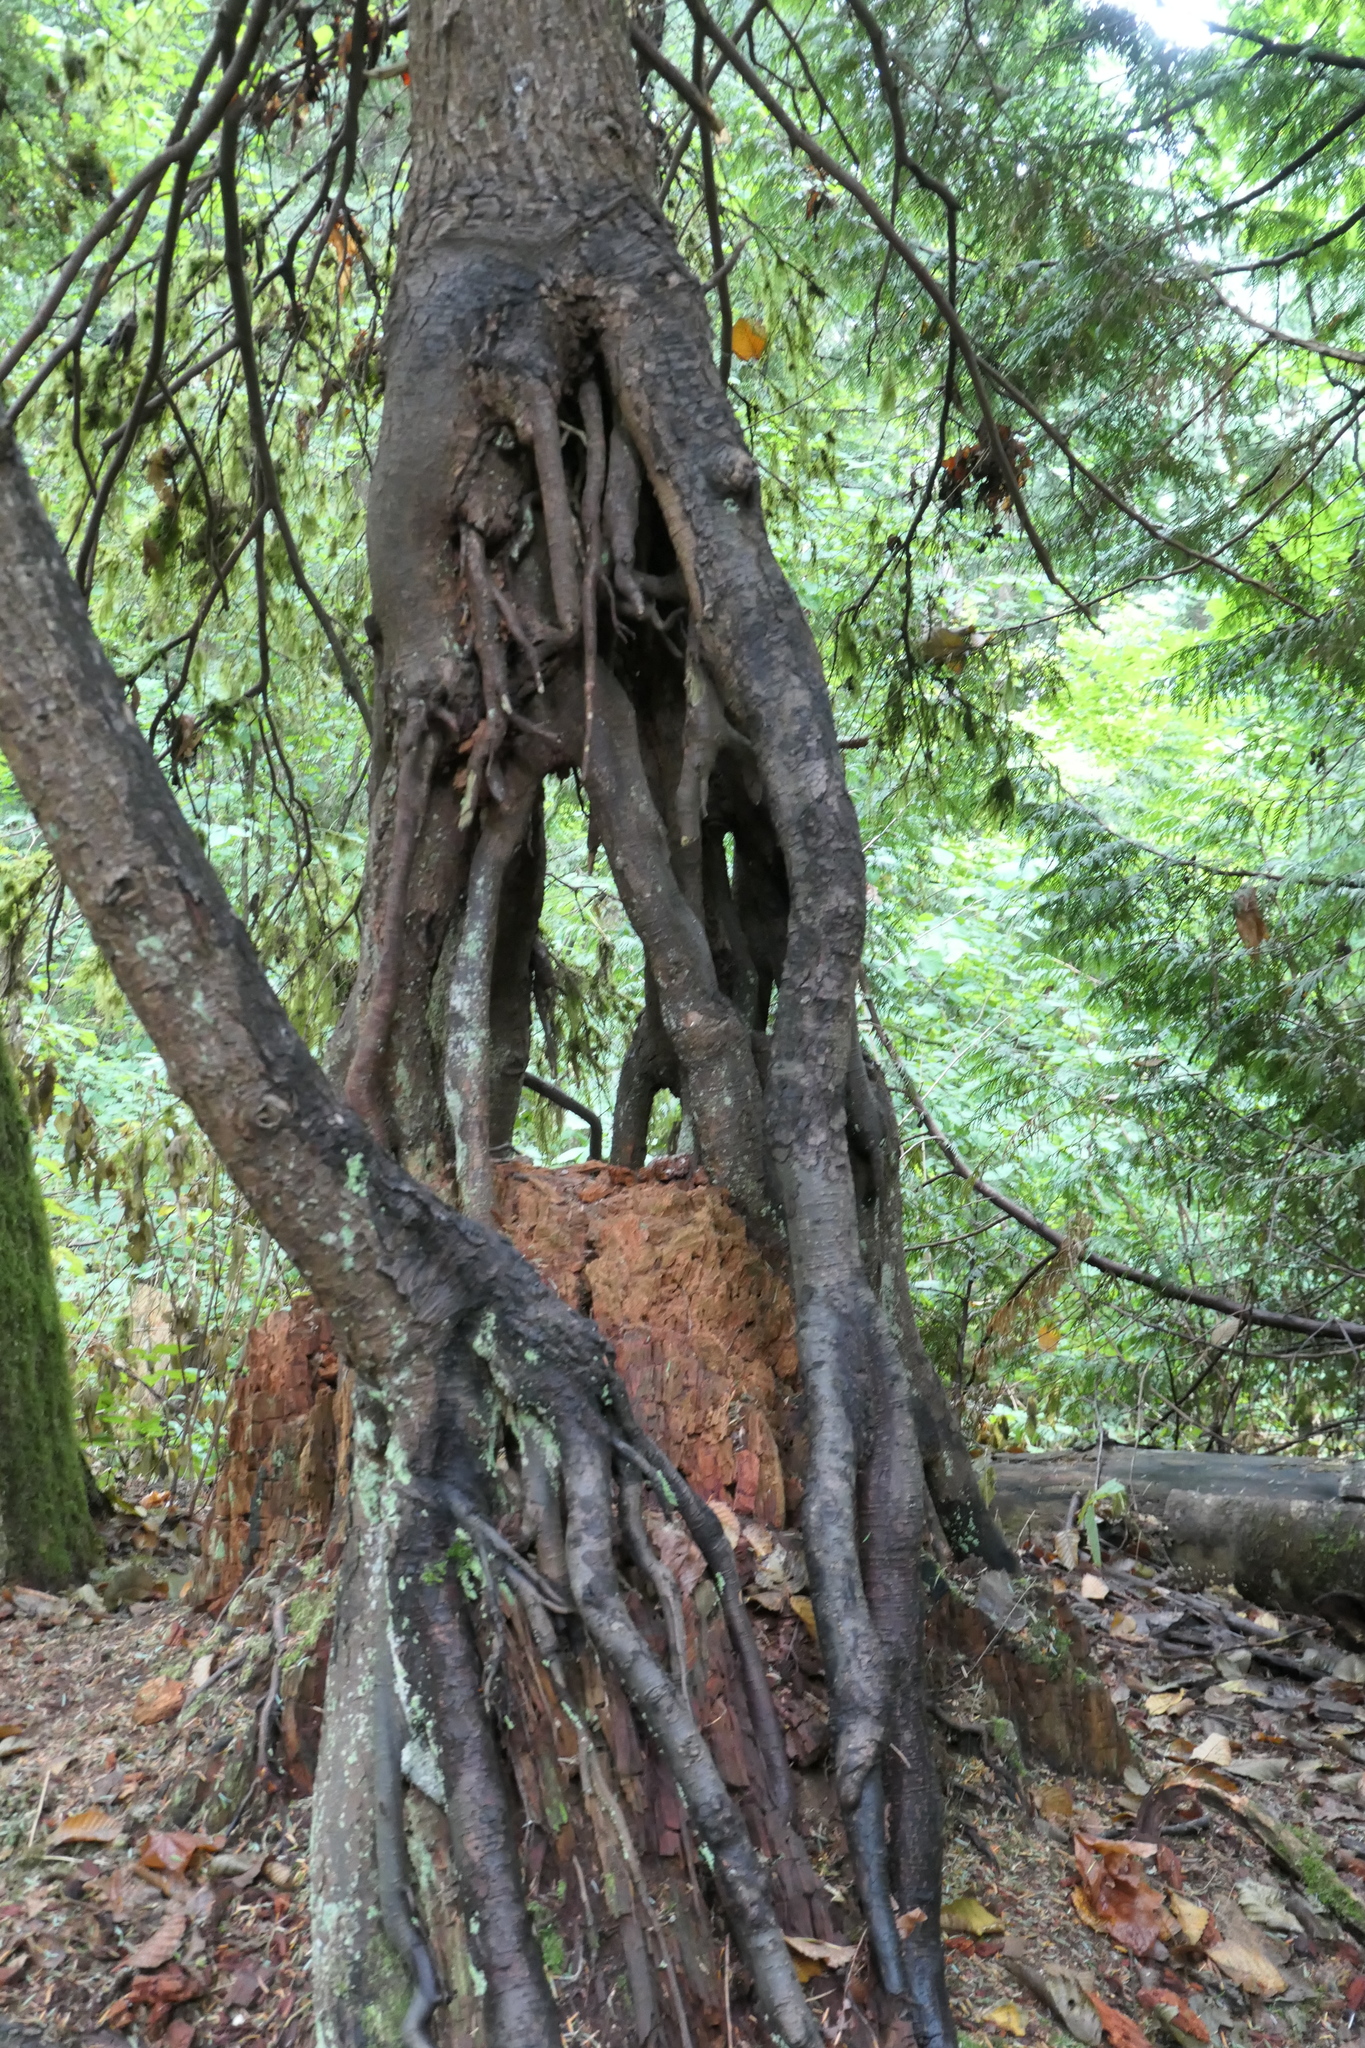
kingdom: Plantae
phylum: Tracheophyta
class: Pinopsida
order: Pinales
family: Pinaceae
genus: Tsuga
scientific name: Tsuga heterophylla
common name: Western hemlock
